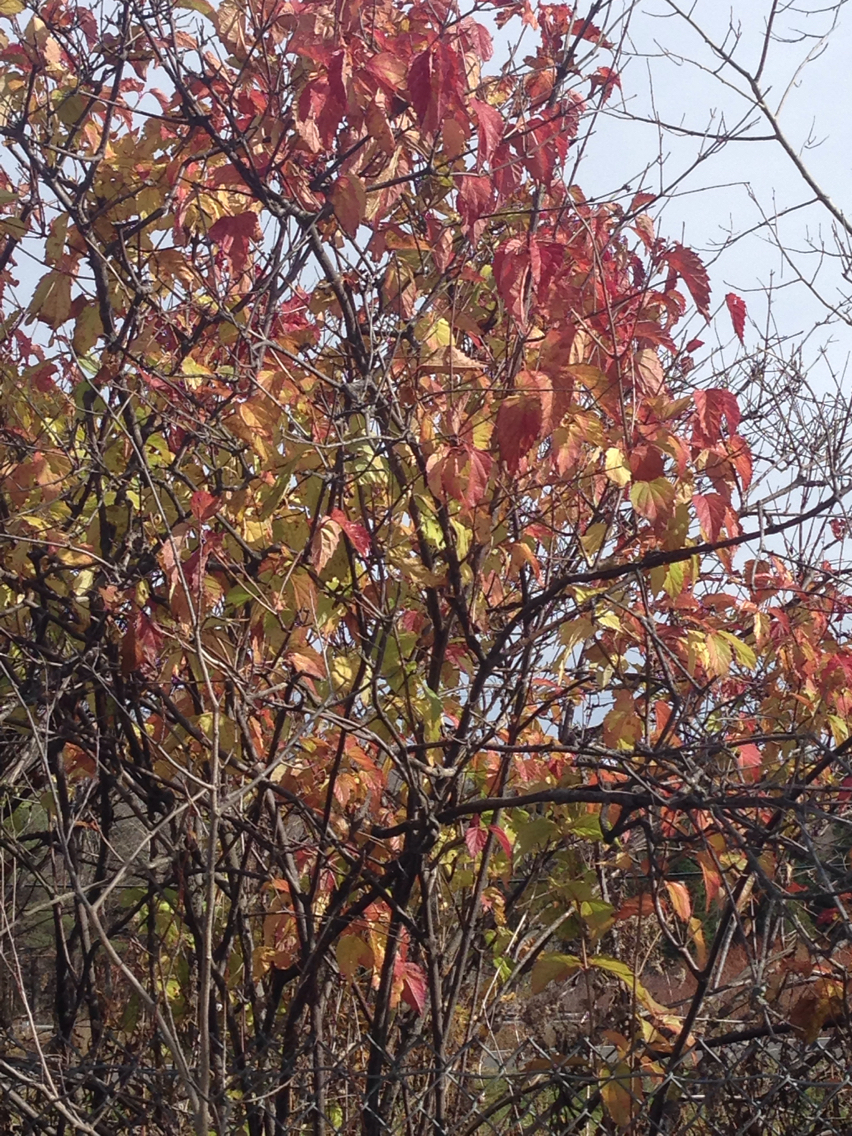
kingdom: Plantae
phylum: Tracheophyta
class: Magnoliopsida
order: Dipsacales
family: Viburnaceae
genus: Viburnum
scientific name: Viburnum dentatum
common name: Arrow-wood
